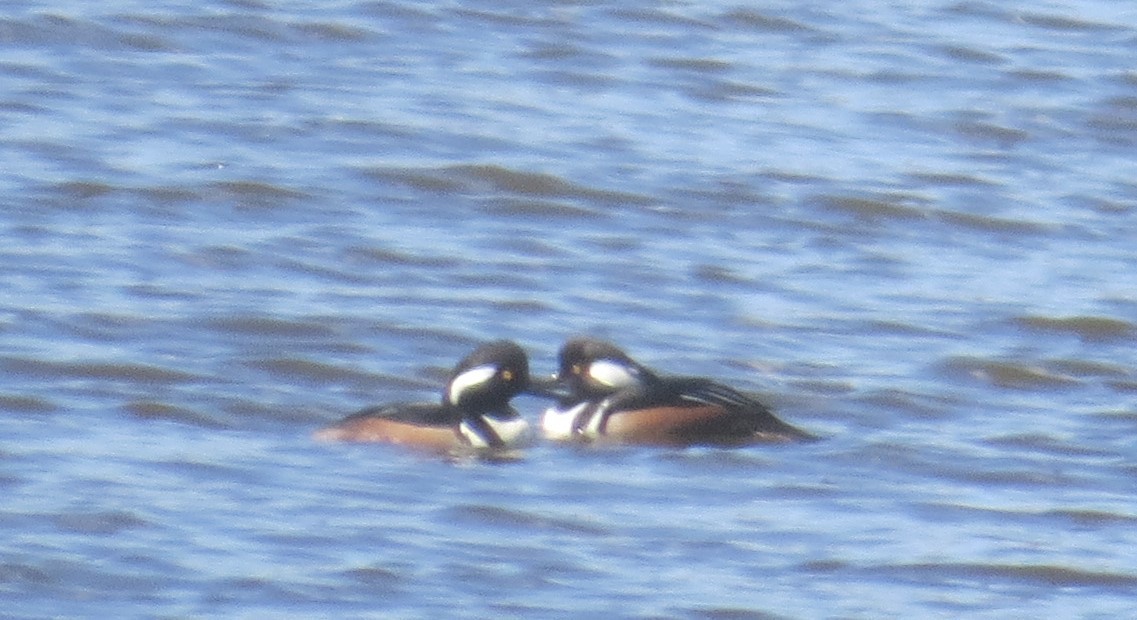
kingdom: Animalia
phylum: Chordata
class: Aves
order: Anseriformes
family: Anatidae
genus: Lophodytes
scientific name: Lophodytes cucullatus
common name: Hooded merganser
